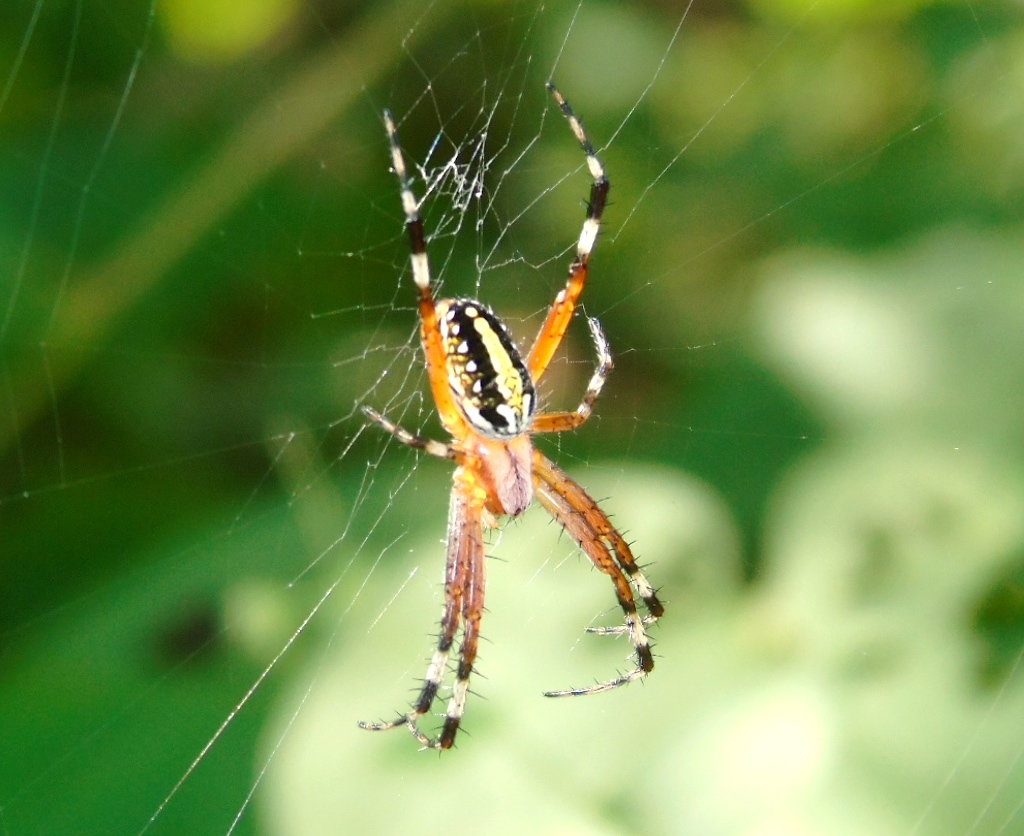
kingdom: Animalia
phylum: Arthropoda
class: Arachnida
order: Araneae
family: Araneidae
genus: Neoscona
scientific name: Neoscona oaxacensis
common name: Orb weavers
